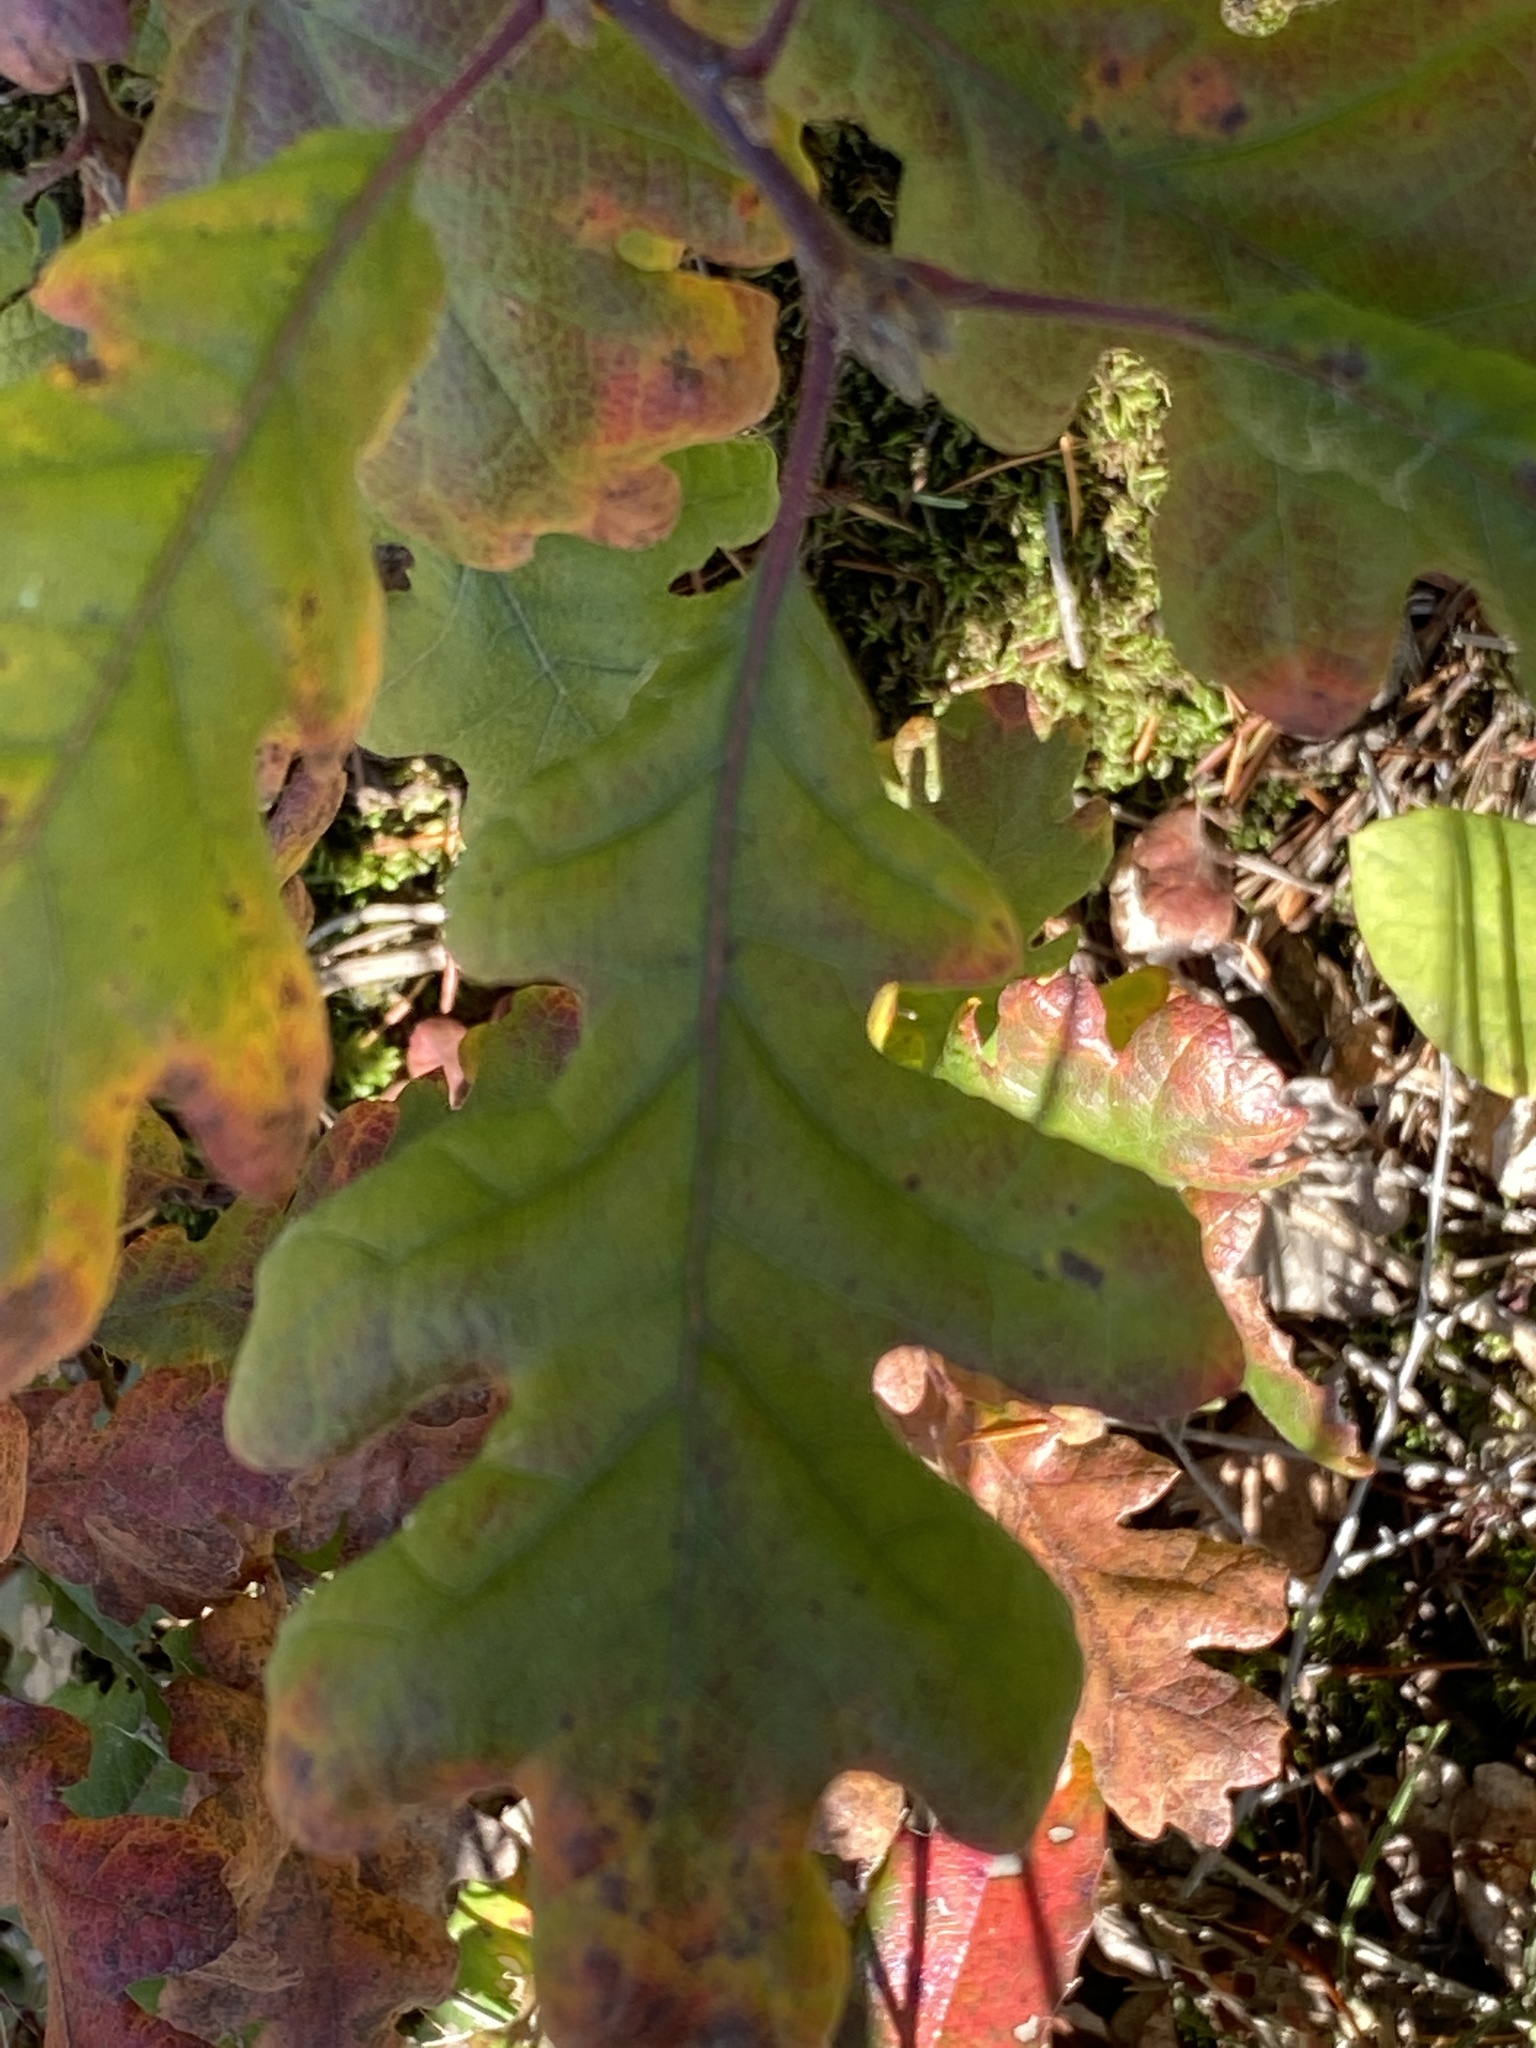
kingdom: Plantae
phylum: Tracheophyta
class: Magnoliopsida
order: Fagales
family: Fagaceae
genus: Quercus
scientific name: Quercus garryana
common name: Garry oak
